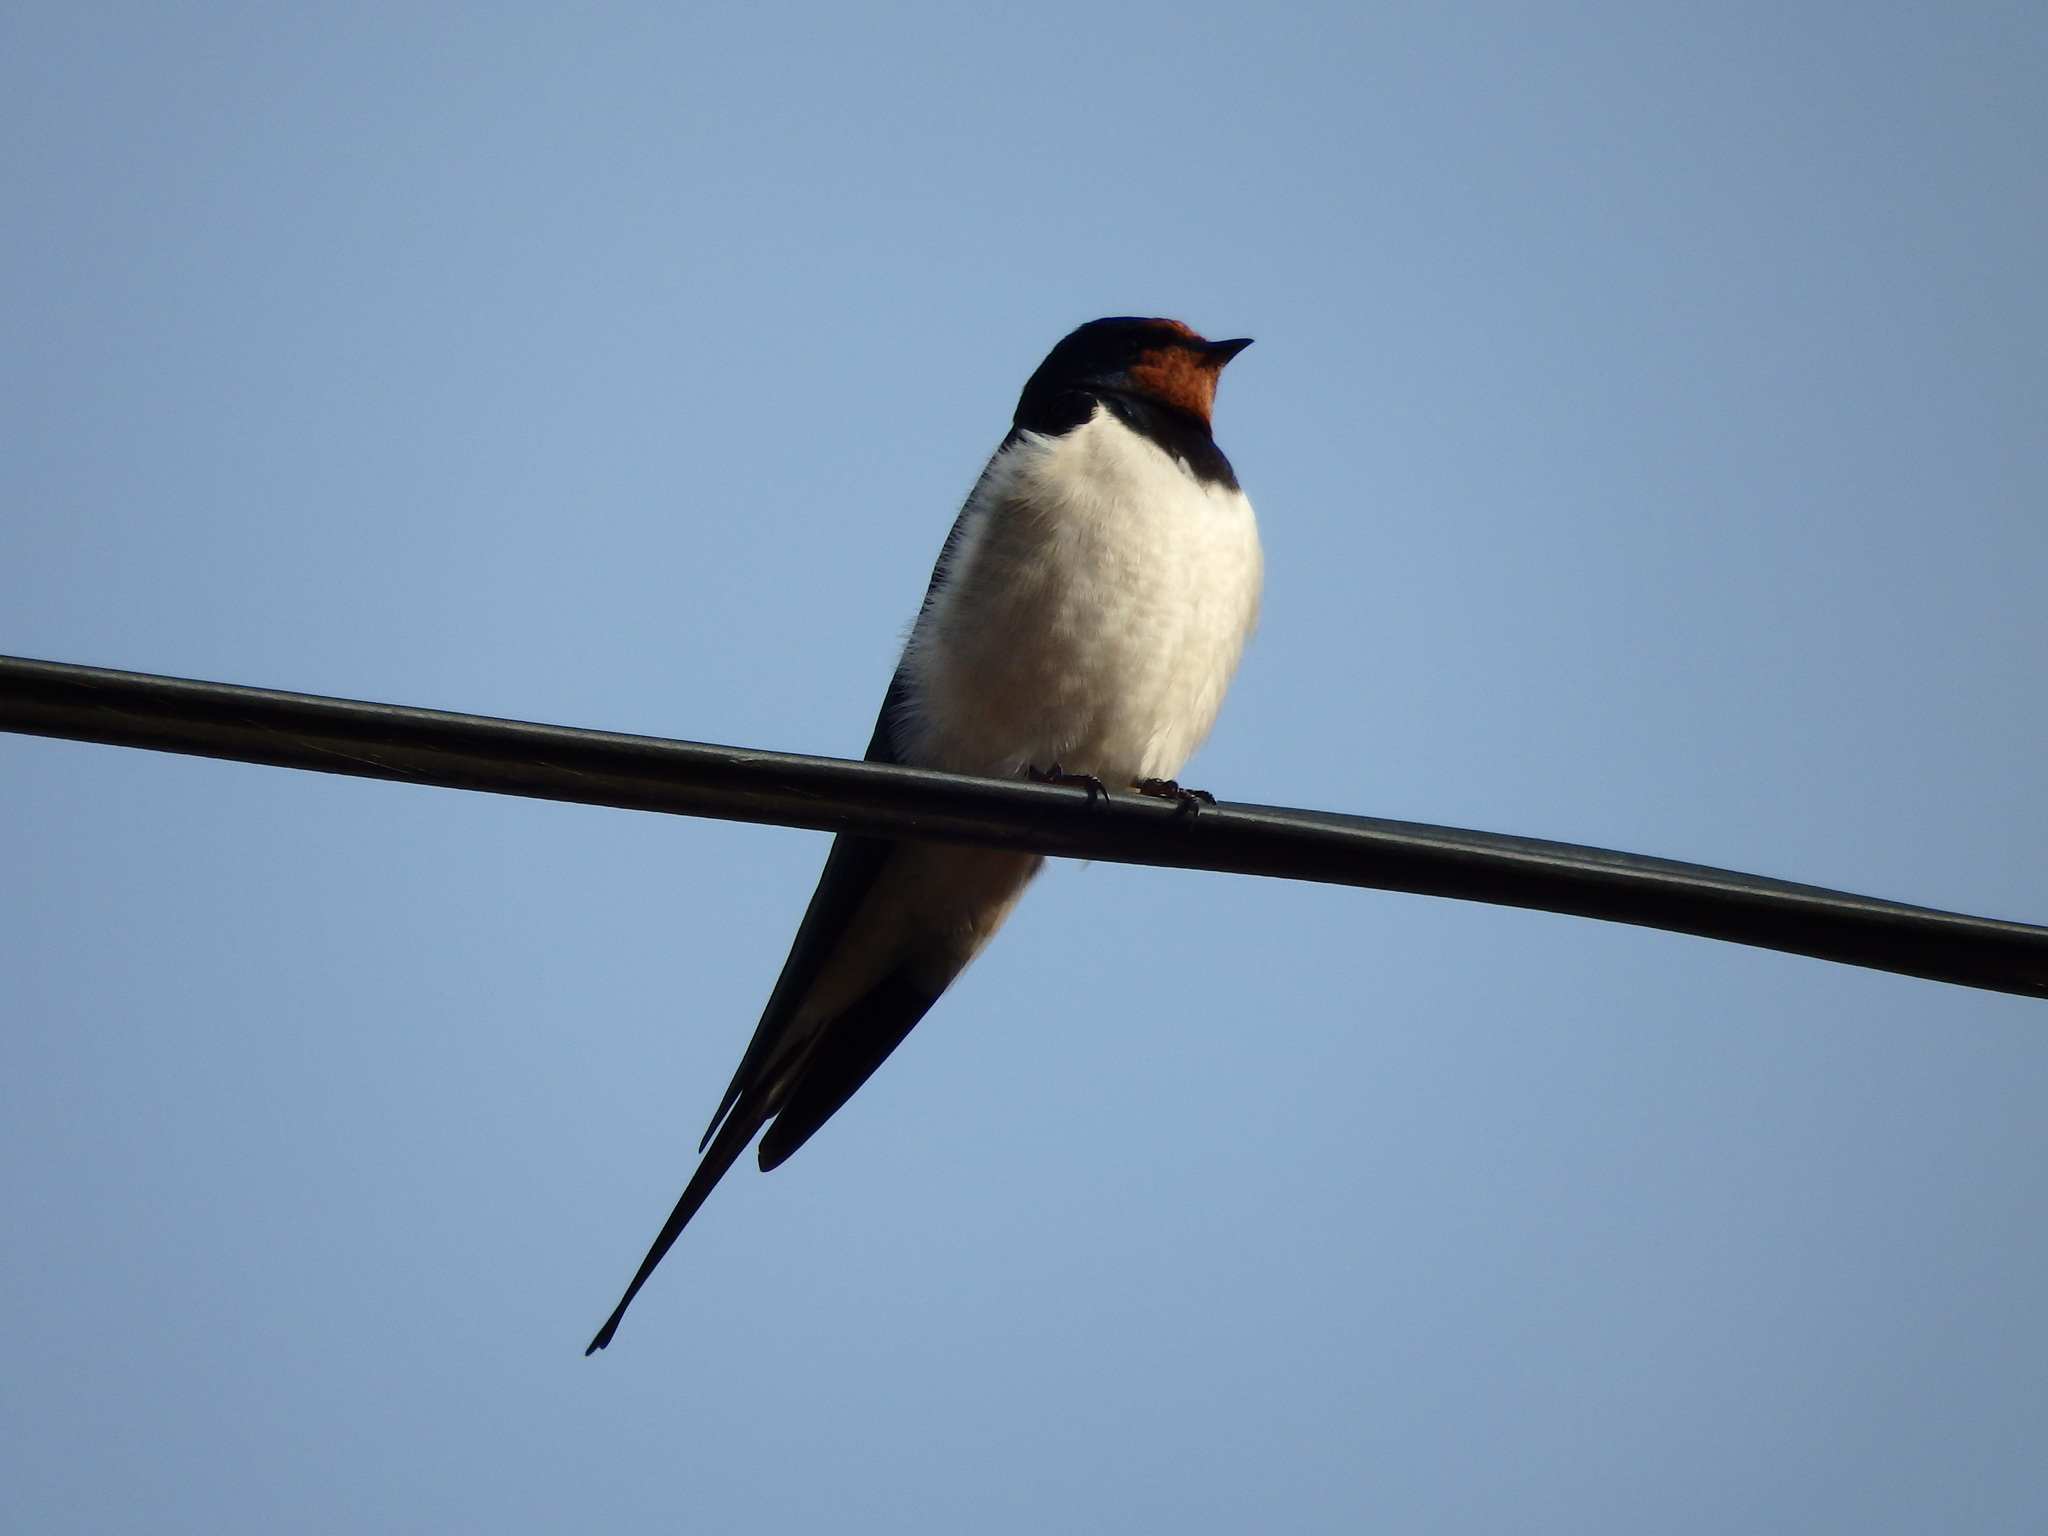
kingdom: Animalia
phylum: Chordata
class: Aves
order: Passeriformes
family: Hirundinidae
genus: Hirundo
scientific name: Hirundo rustica
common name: Barn swallow
